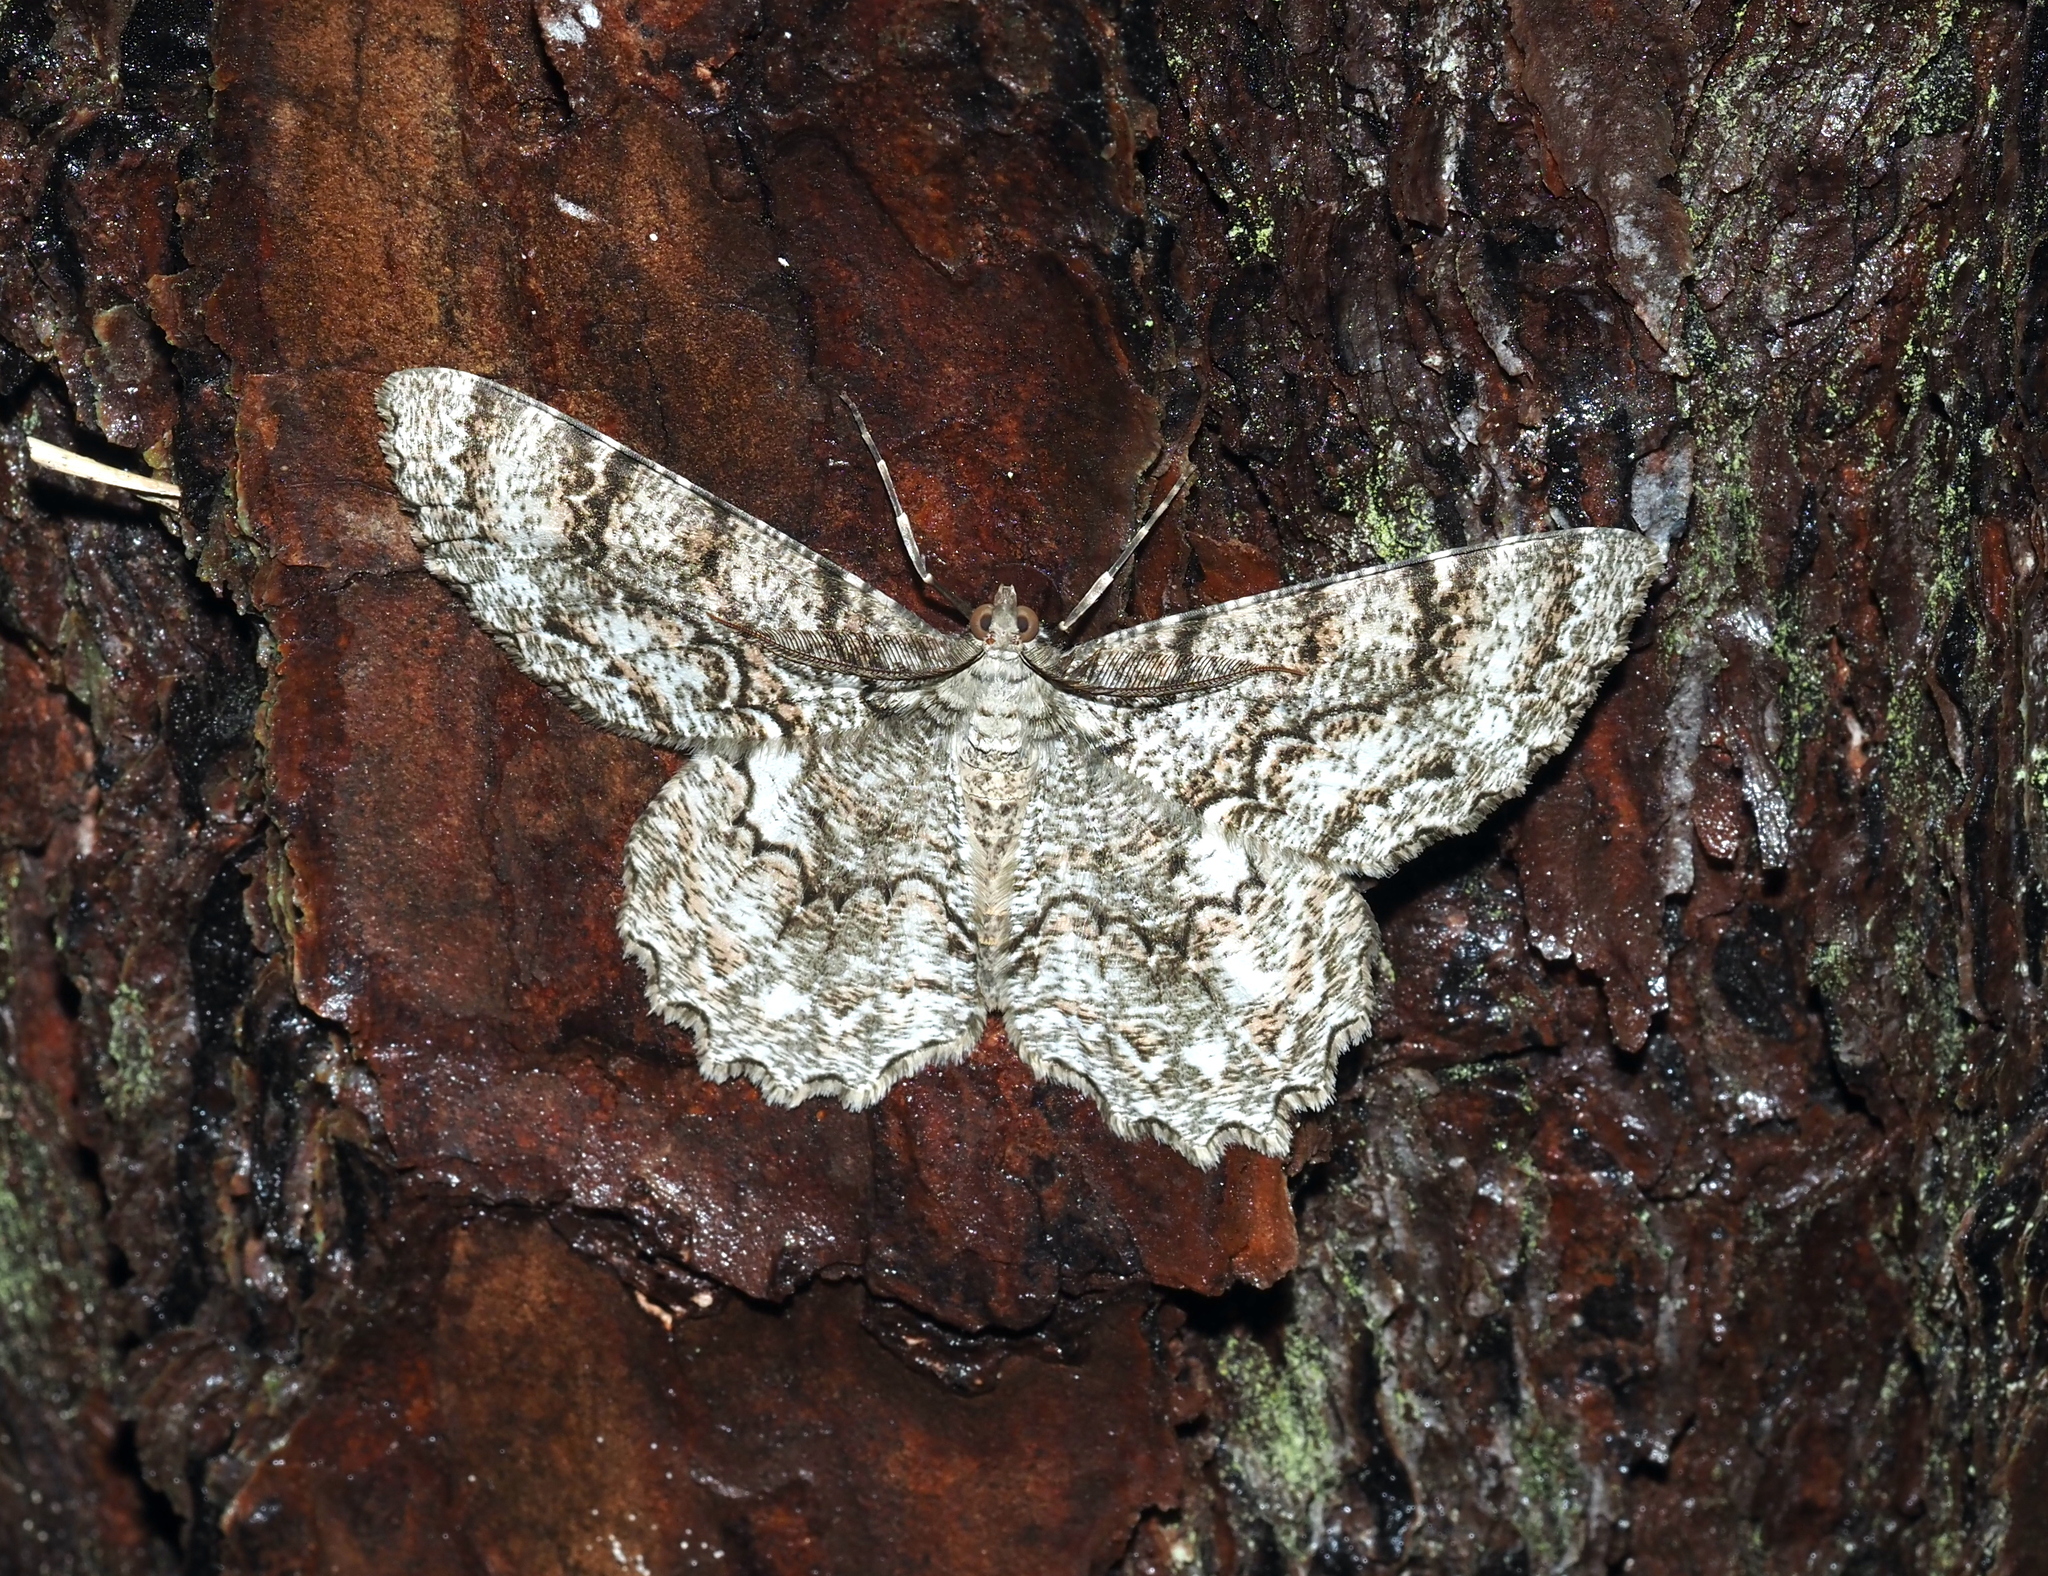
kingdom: Animalia
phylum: Arthropoda
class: Insecta
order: Lepidoptera
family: Geometridae
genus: Epimecis
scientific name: Epimecis hortaria
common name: Tulip-tree beauty
